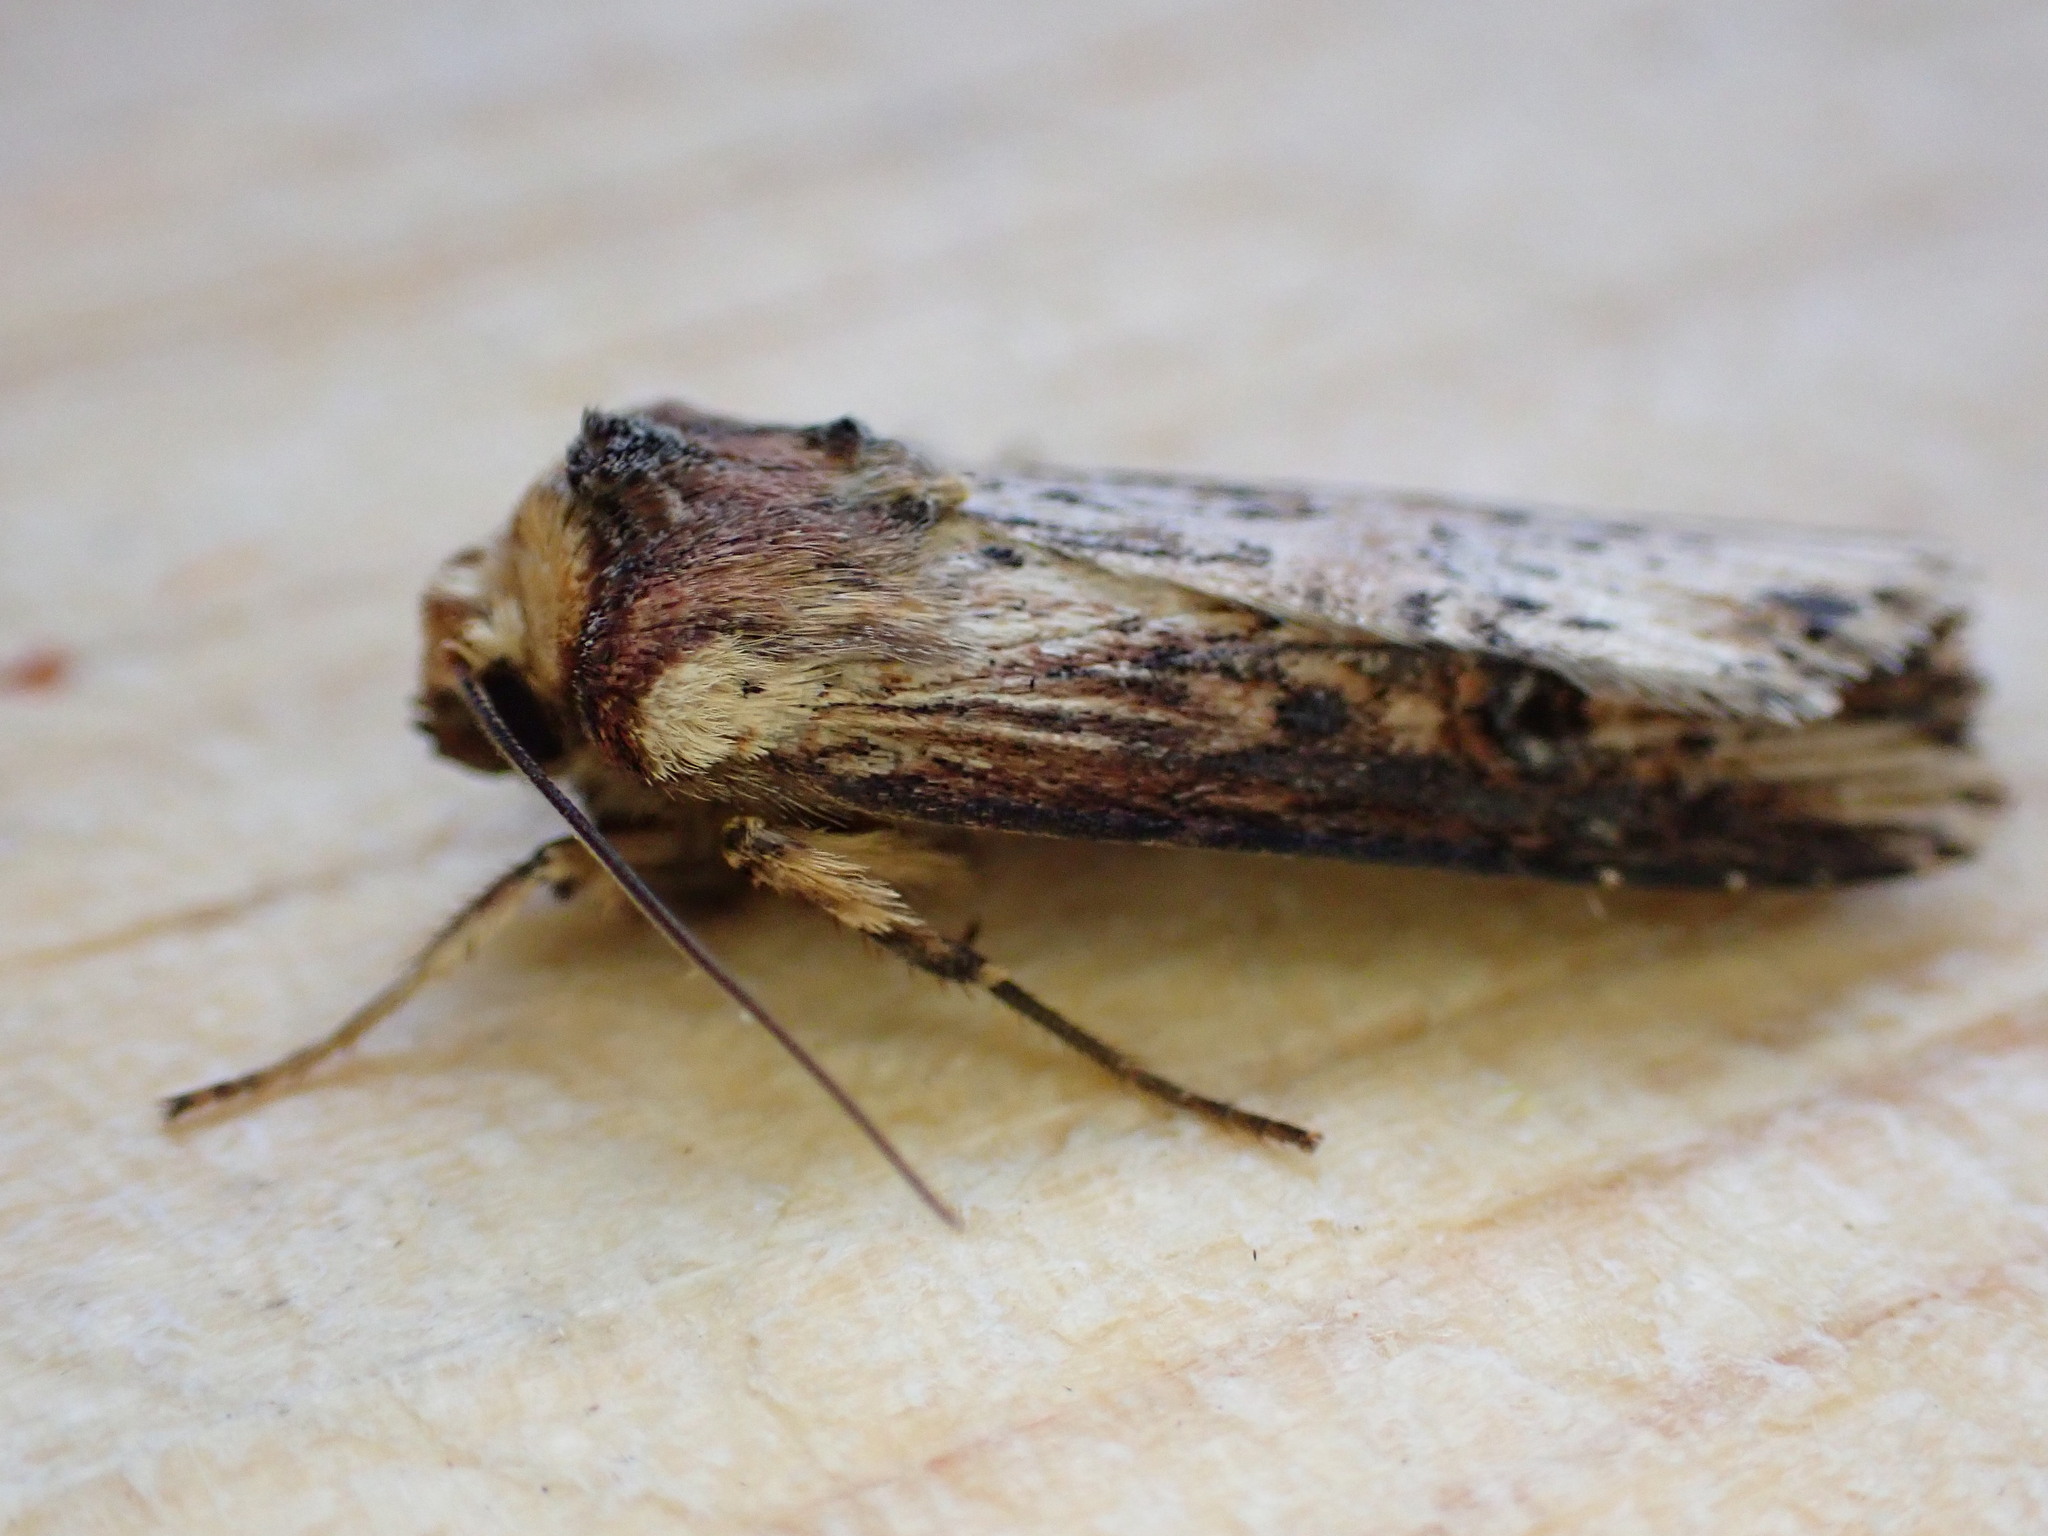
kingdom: Animalia
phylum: Arthropoda
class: Insecta
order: Lepidoptera
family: Noctuidae
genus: Axylia
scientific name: Axylia putris
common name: Flame
